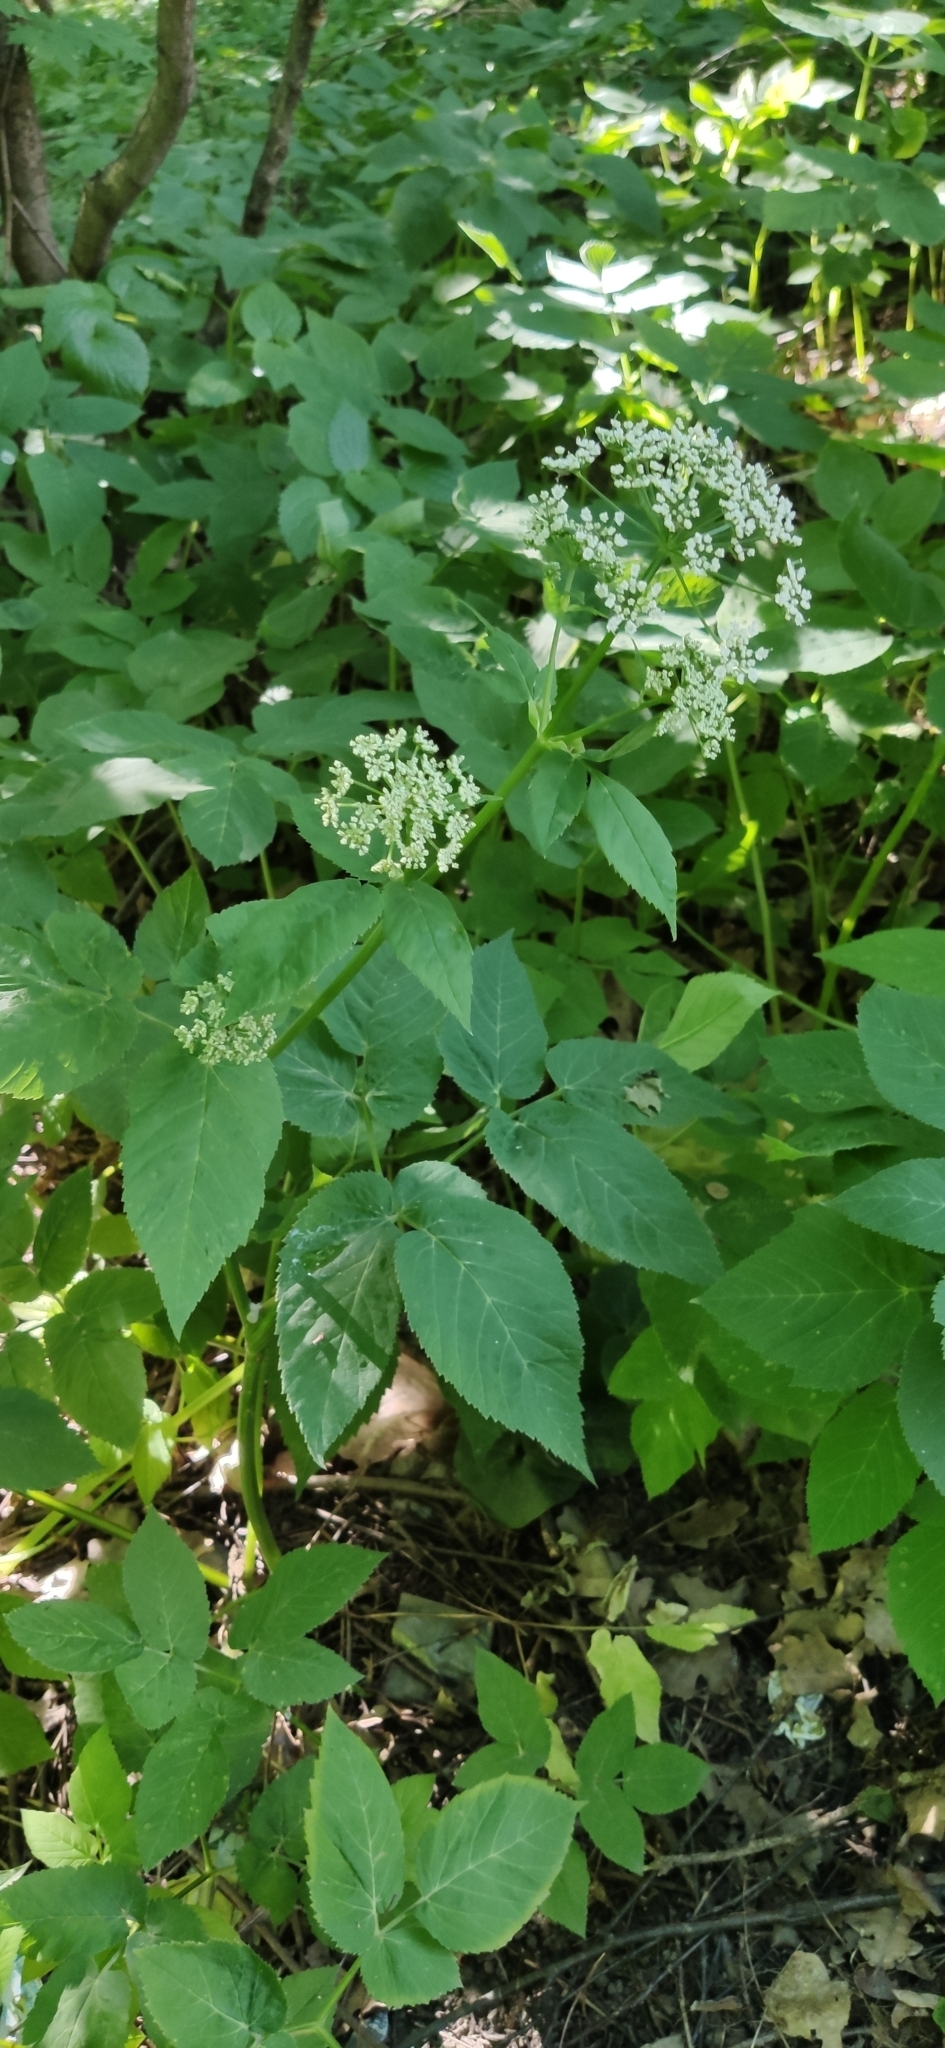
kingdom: Plantae
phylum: Tracheophyta
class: Magnoliopsida
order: Apiales
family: Apiaceae
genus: Aegopodium
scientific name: Aegopodium podagraria
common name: Ground-elder
